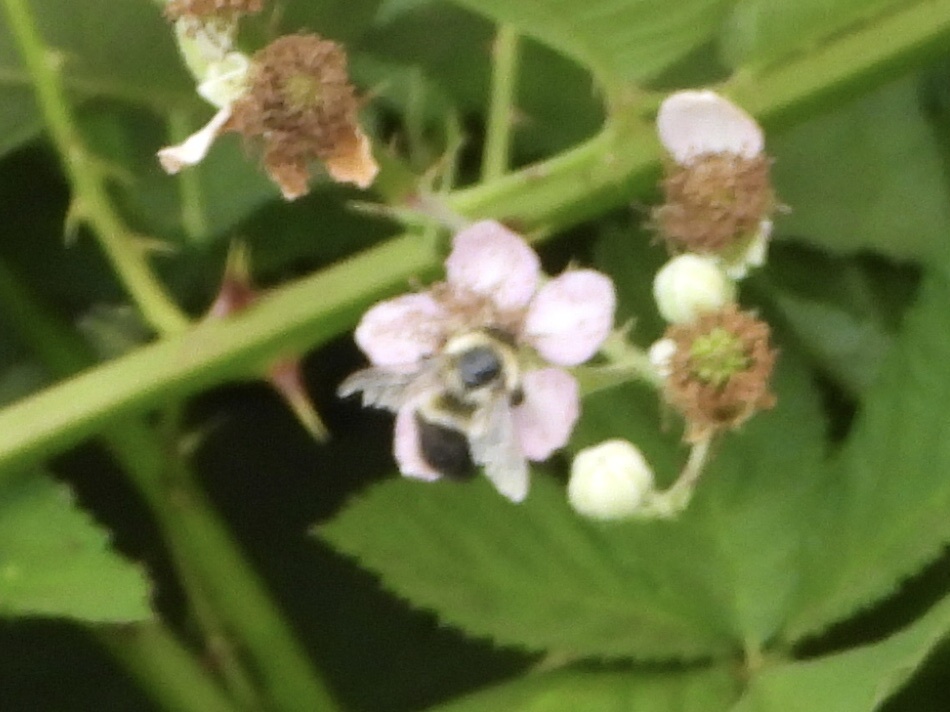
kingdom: Animalia
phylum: Arthropoda
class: Insecta
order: Hymenoptera
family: Apidae
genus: Bombus
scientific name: Bombus impatiens
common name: Common eastern bumble bee
